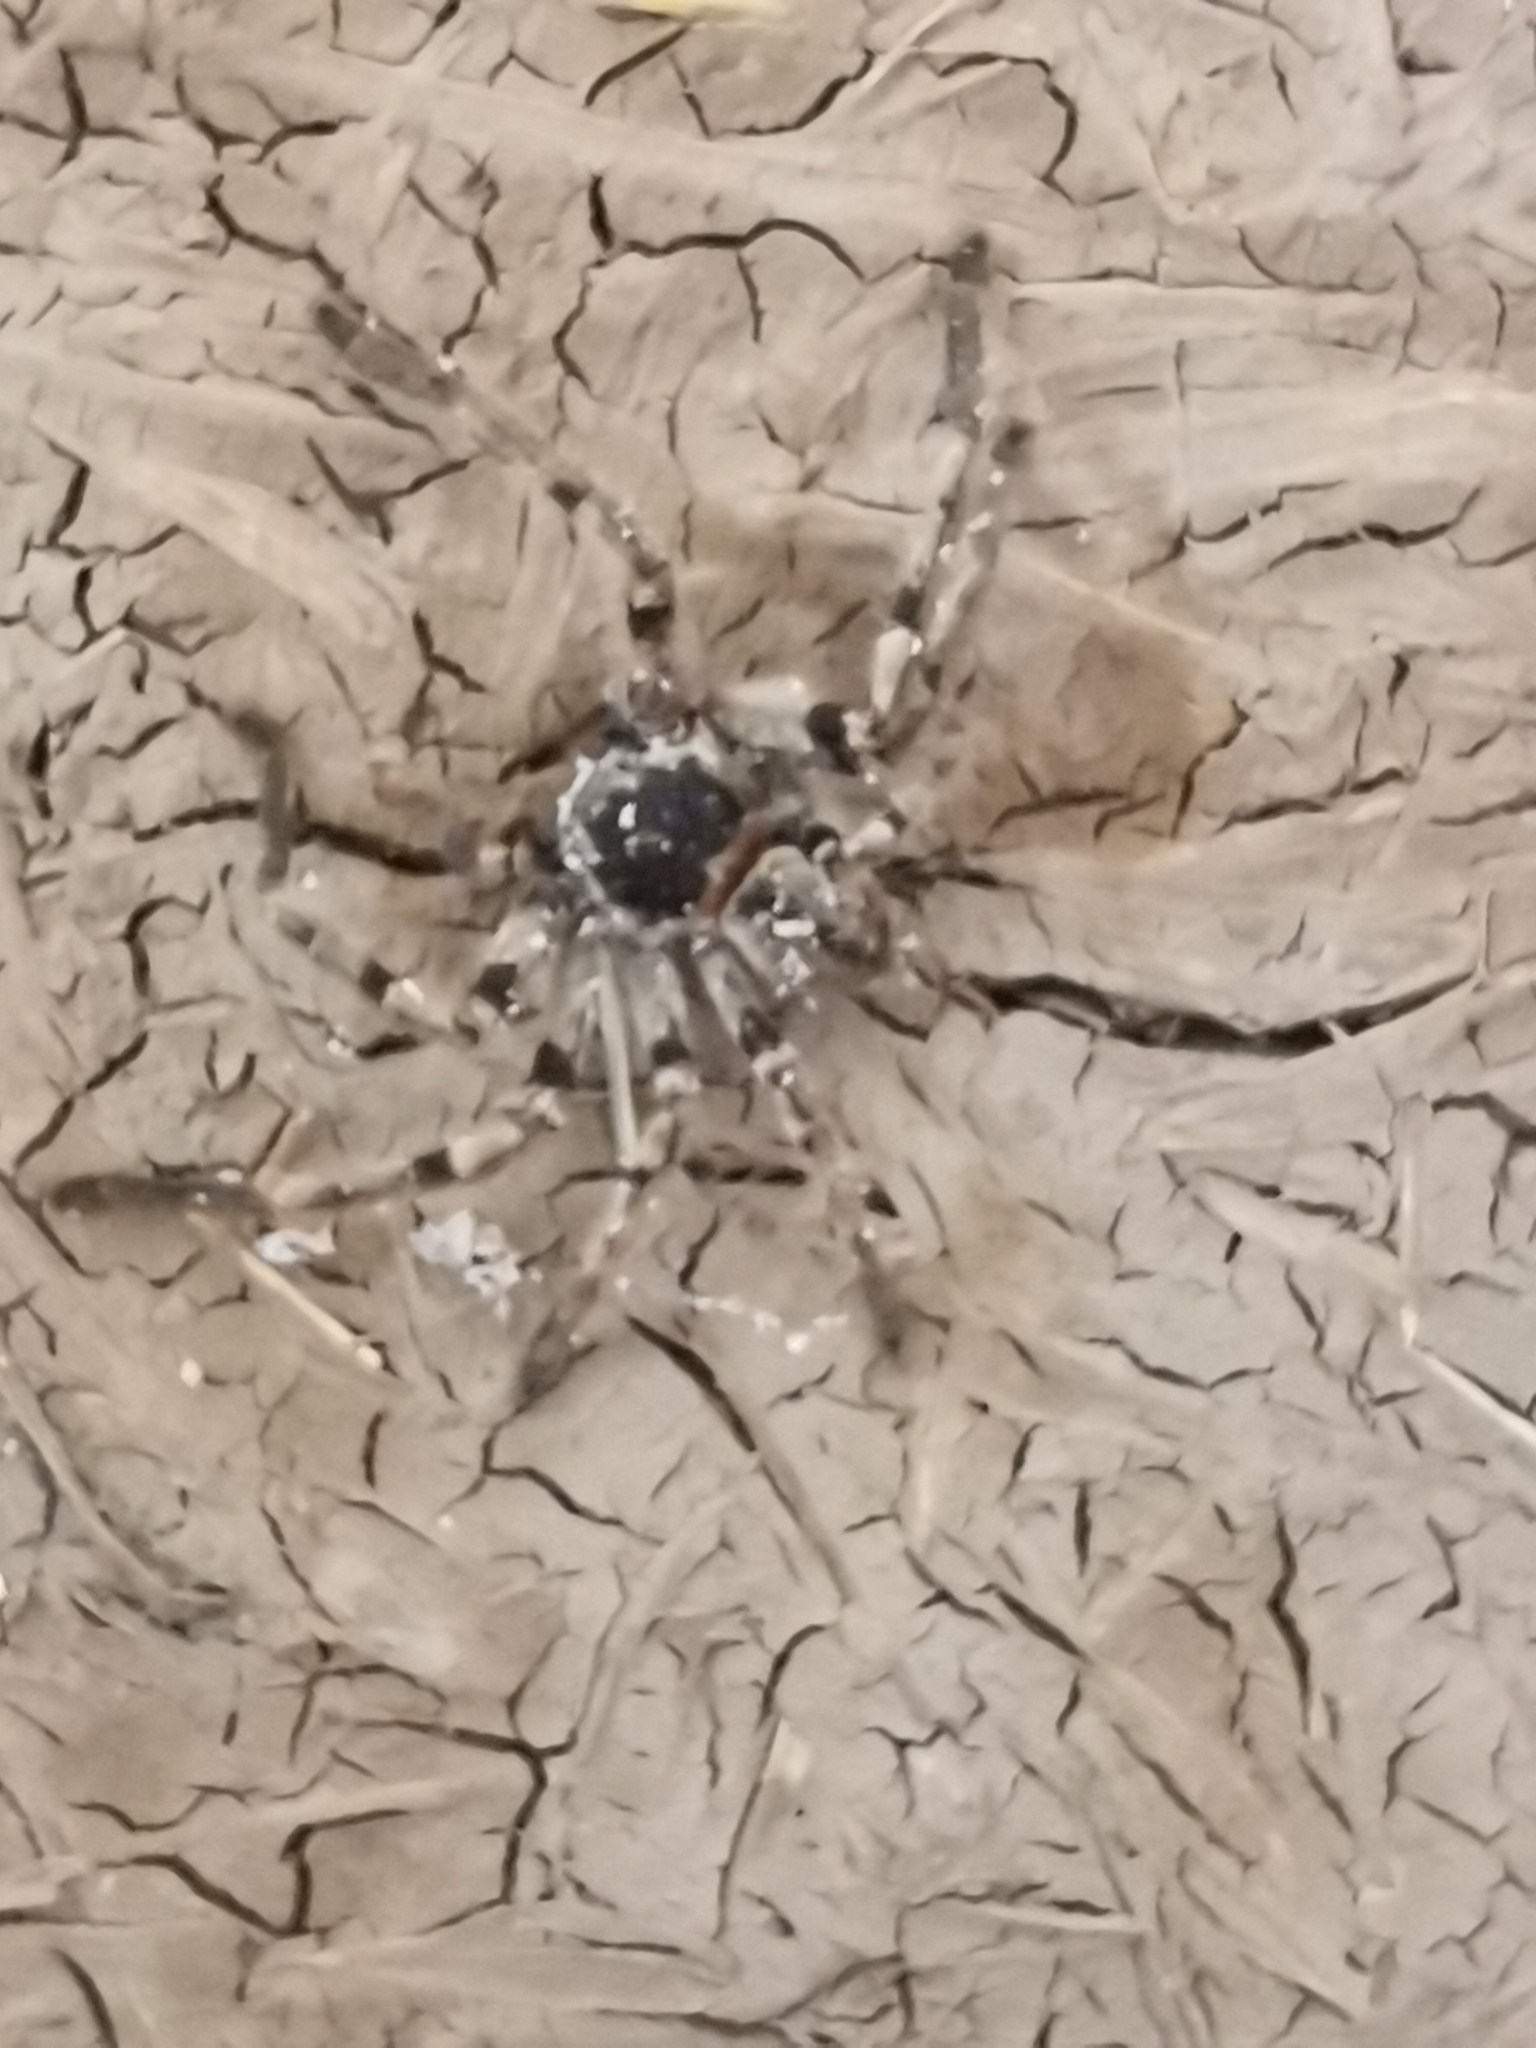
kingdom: Animalia
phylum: Arthropoda
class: Arachnida
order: Araneae
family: Sparassidae
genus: Polybetes
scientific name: Polybetes pythagoricus
